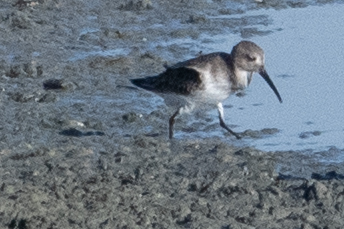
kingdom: Animalia
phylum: Chordata
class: Aves
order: Charadriiformes
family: Scolopacidae
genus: Calidris
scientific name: Calidris alpina
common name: Dunlin
